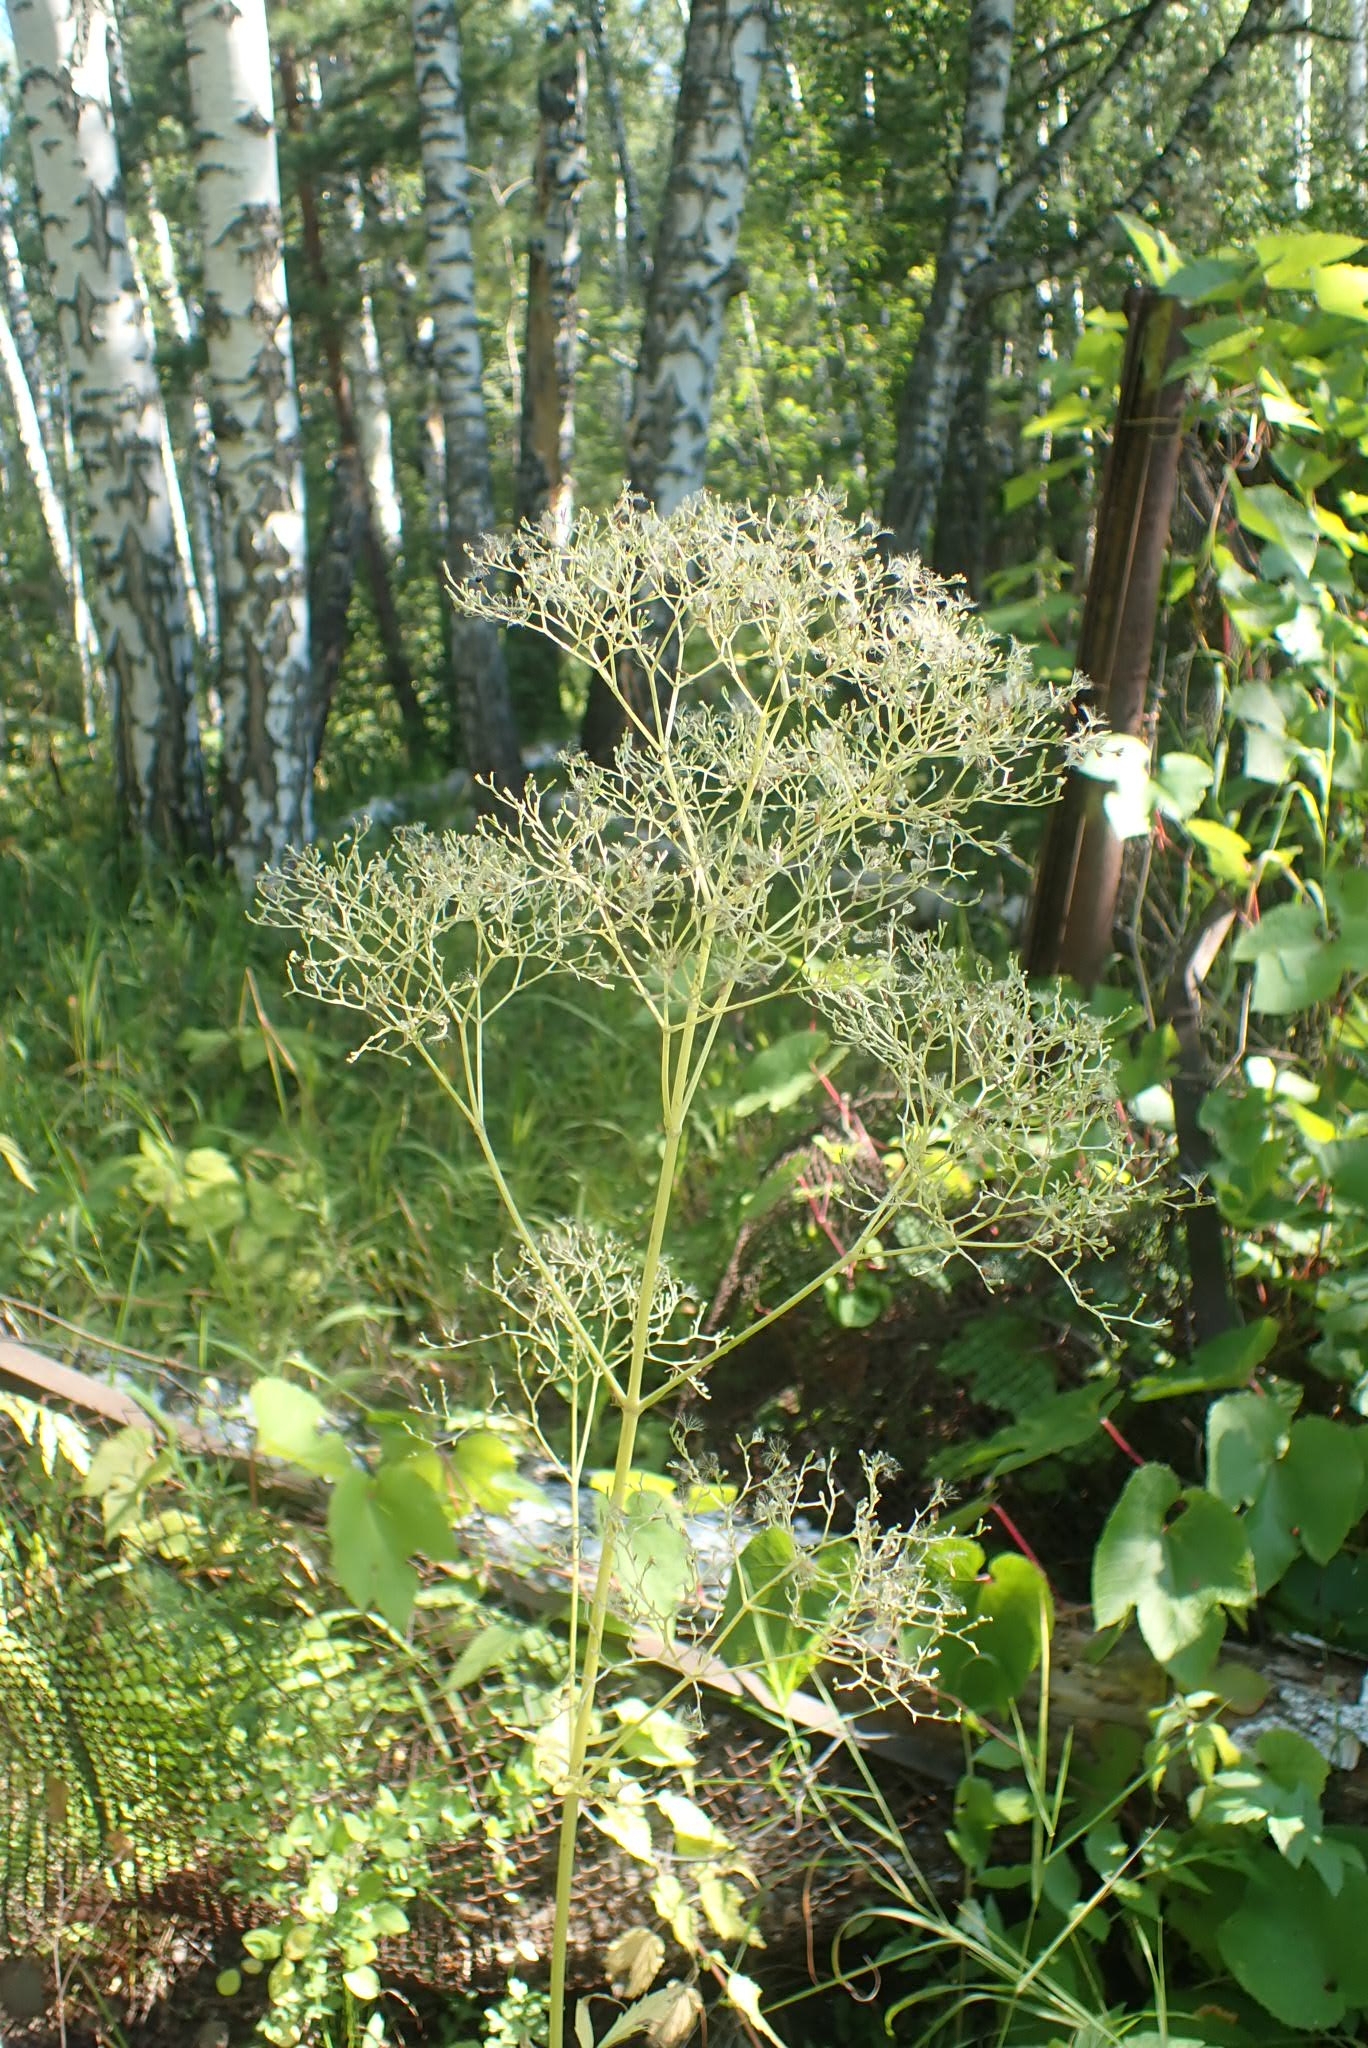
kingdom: Plantae
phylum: Tracheophyta
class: Magnoliopsida
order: Dipsacales
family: Caprifoliaceae
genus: Valeriana
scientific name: Valeriana officinalis
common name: Common valerian
